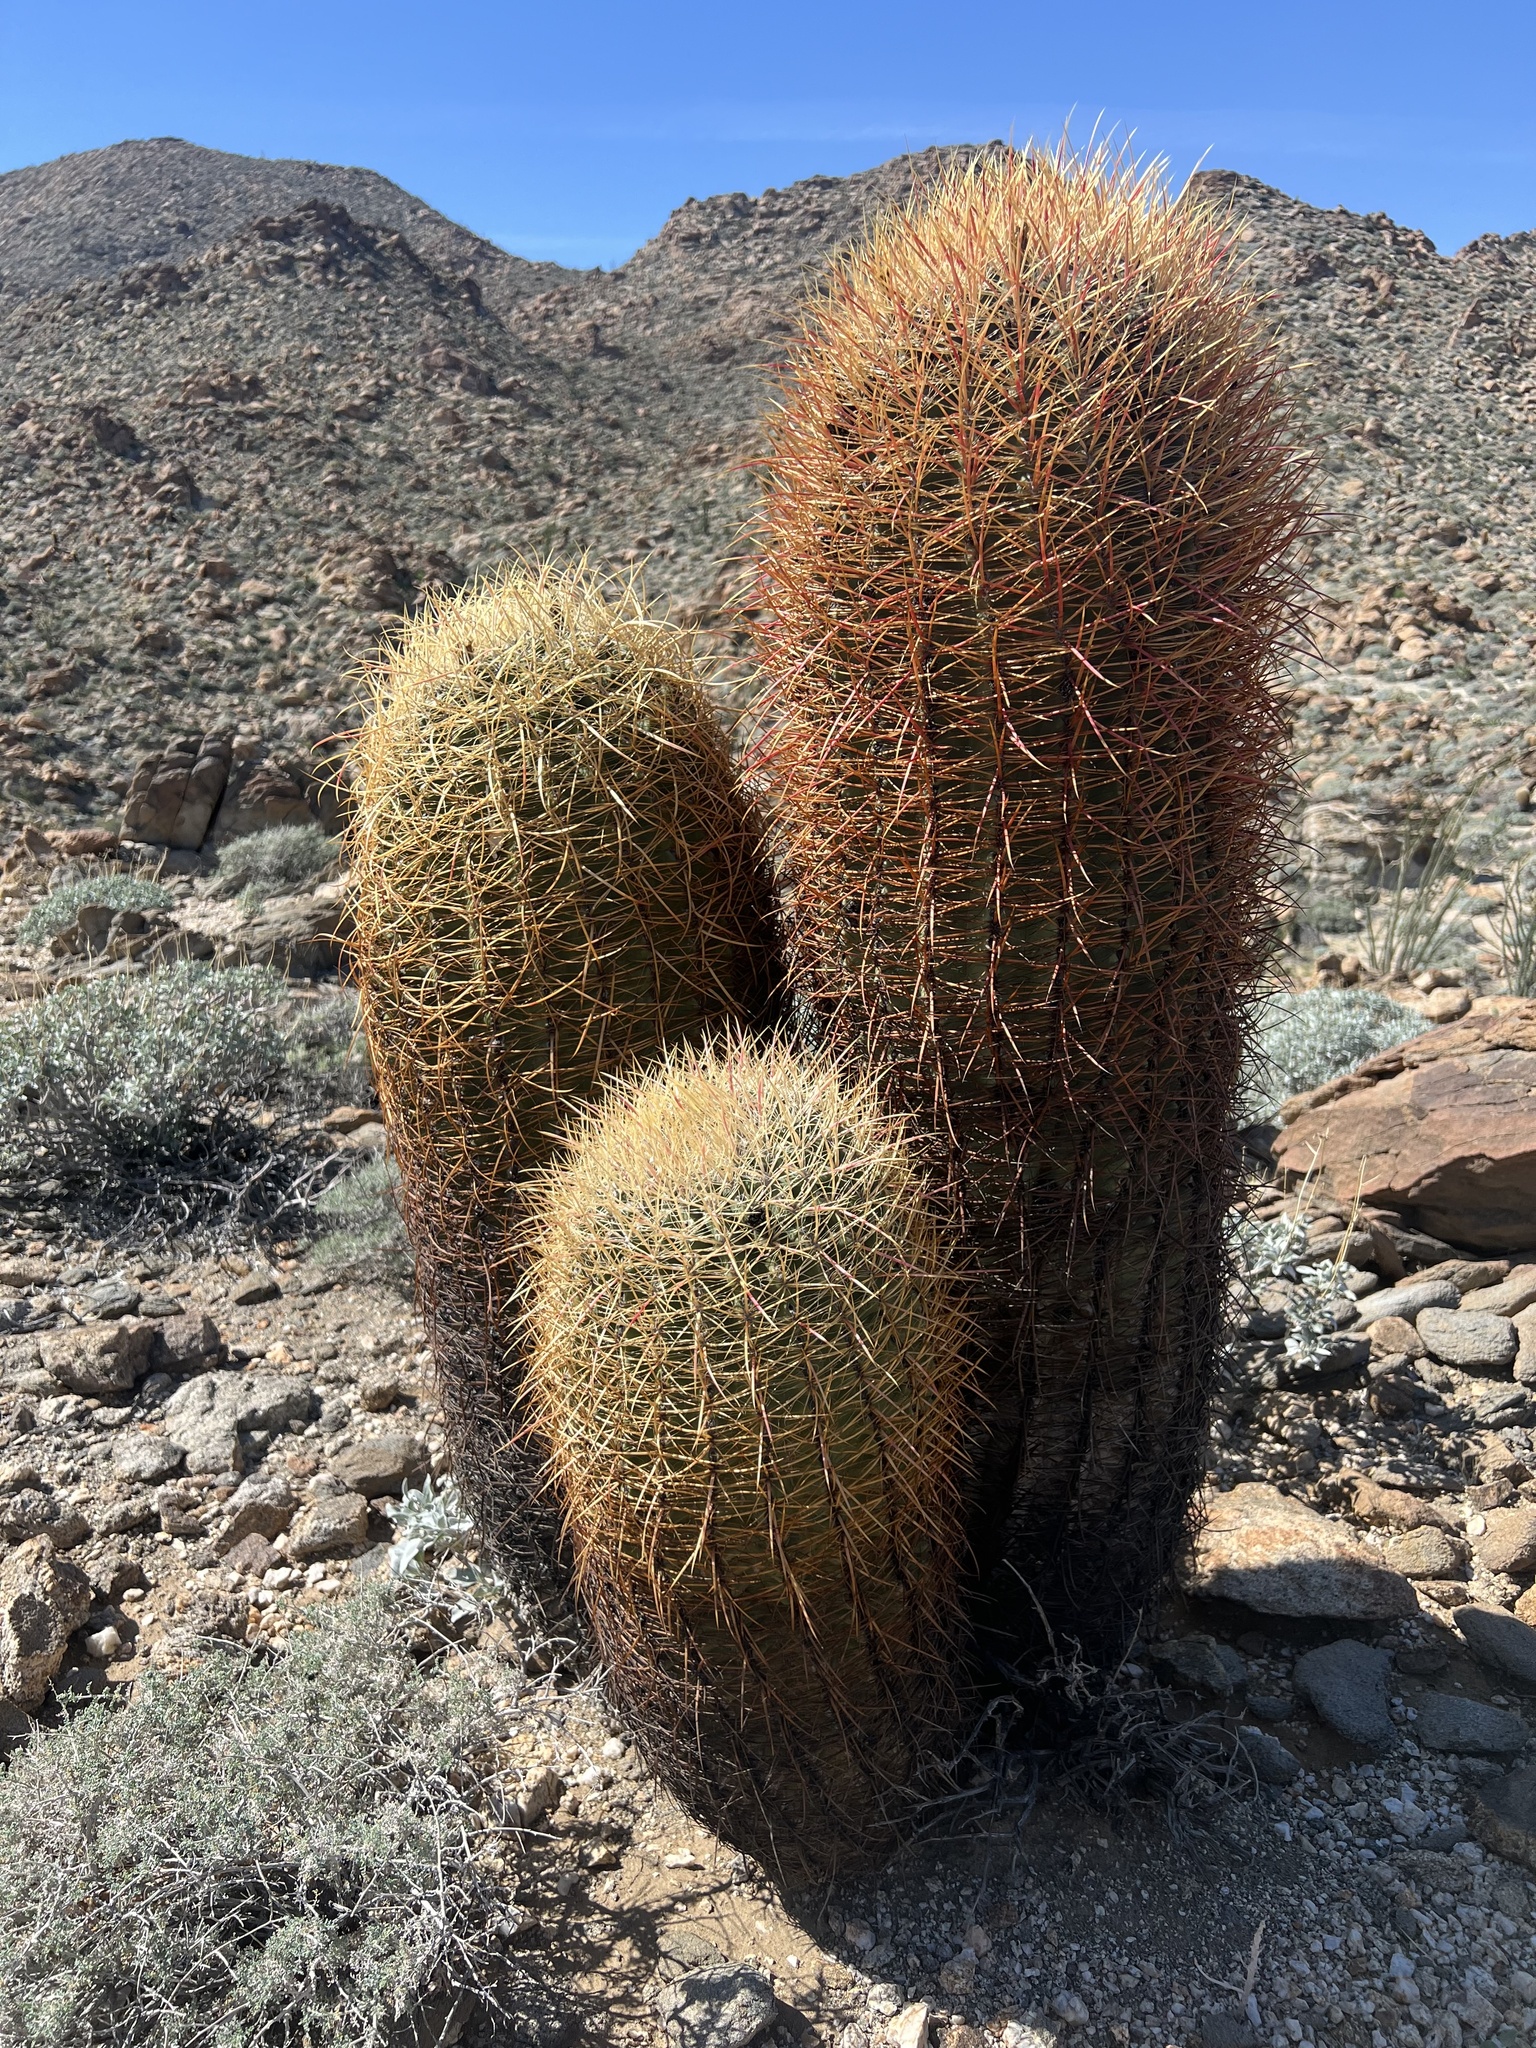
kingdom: Plantae
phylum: Tracheophyta
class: Magnoliopsida
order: Caryophyllales
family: Cactaceae
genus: Ferocactus
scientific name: Ferocactus cylindraceus
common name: California barrel cactus
